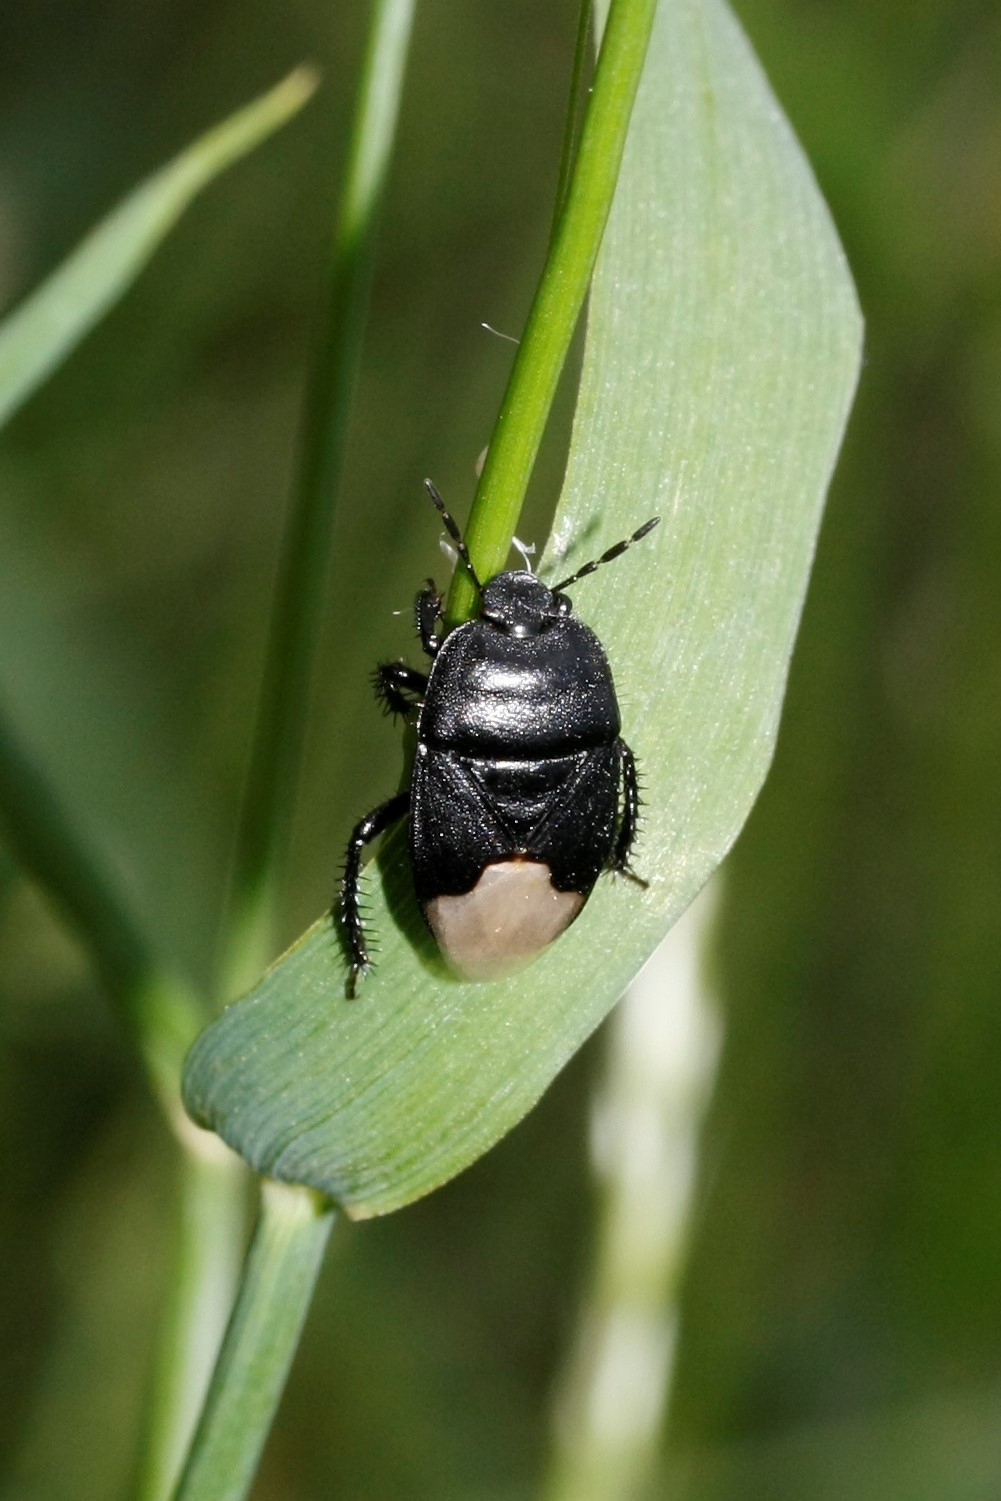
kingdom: Animalia
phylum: Arthropoda
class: Insecta
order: Hemiptera
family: Cydnidae
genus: Cydnus
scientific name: Cydnus aterrimus
